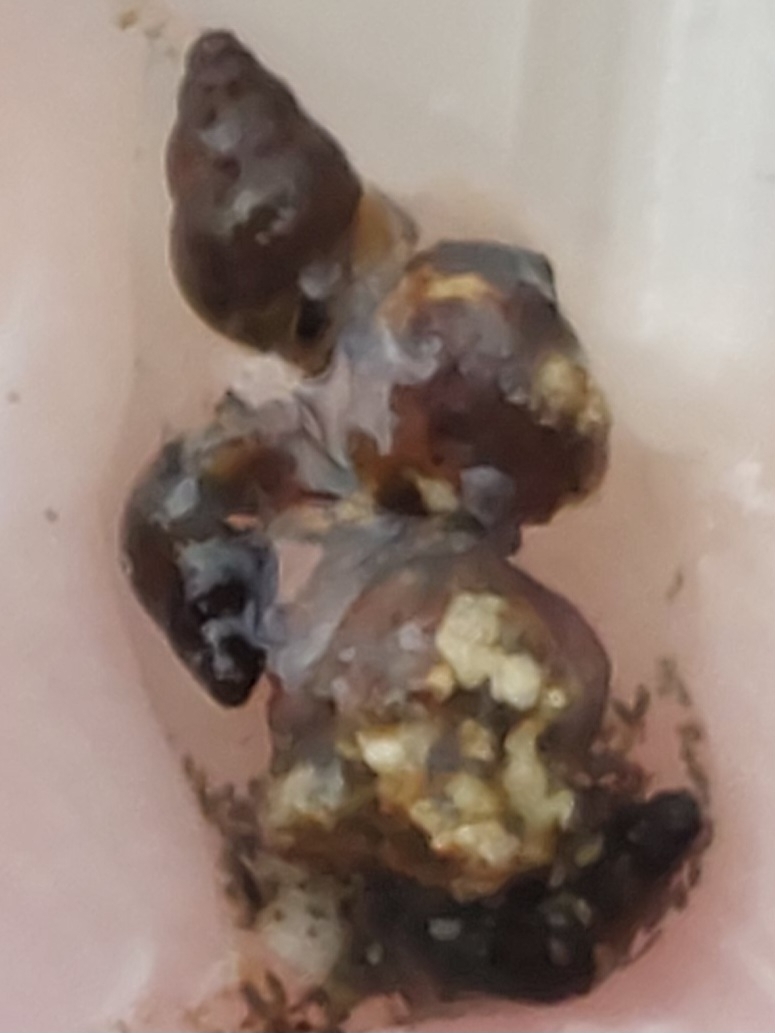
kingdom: Animalia
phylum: Mollusca
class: Gastropoda
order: Littorinimorpha
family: Tateidae
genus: Potamopyrgus
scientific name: Potamopyrgus antipodarum
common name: Jenkins' spire snail
